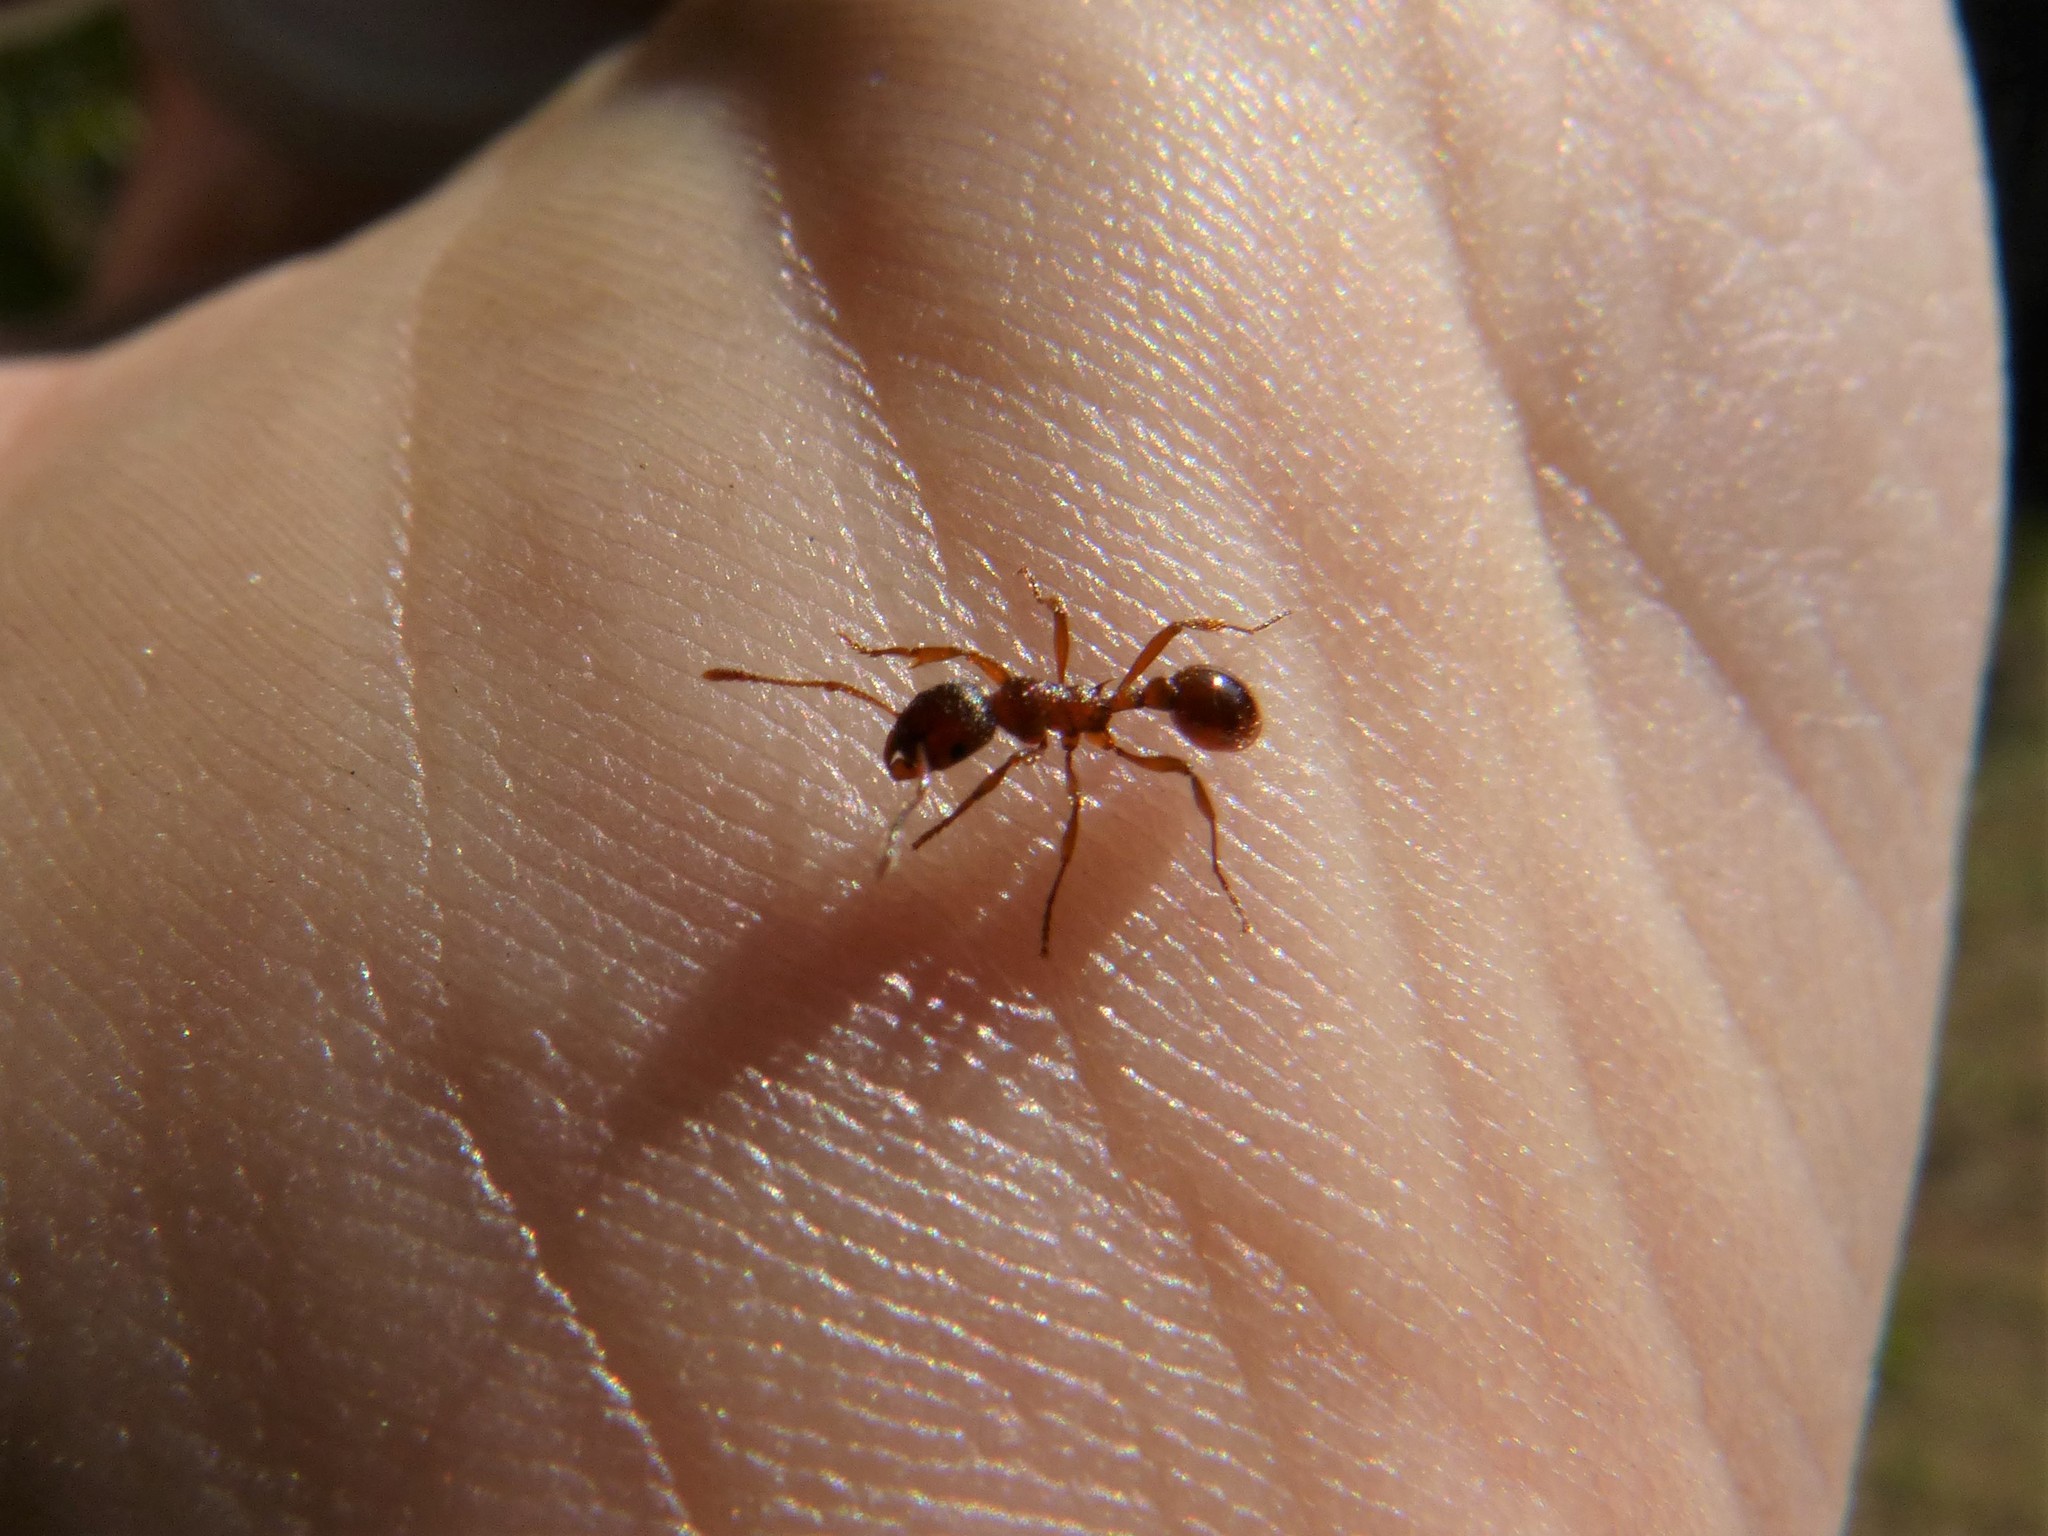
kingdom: Animalia
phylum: Arthropoda
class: Insecta
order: Hymenoptera
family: Formicidae
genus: Myrmica
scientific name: Myrmica rubra
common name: European fire ant
